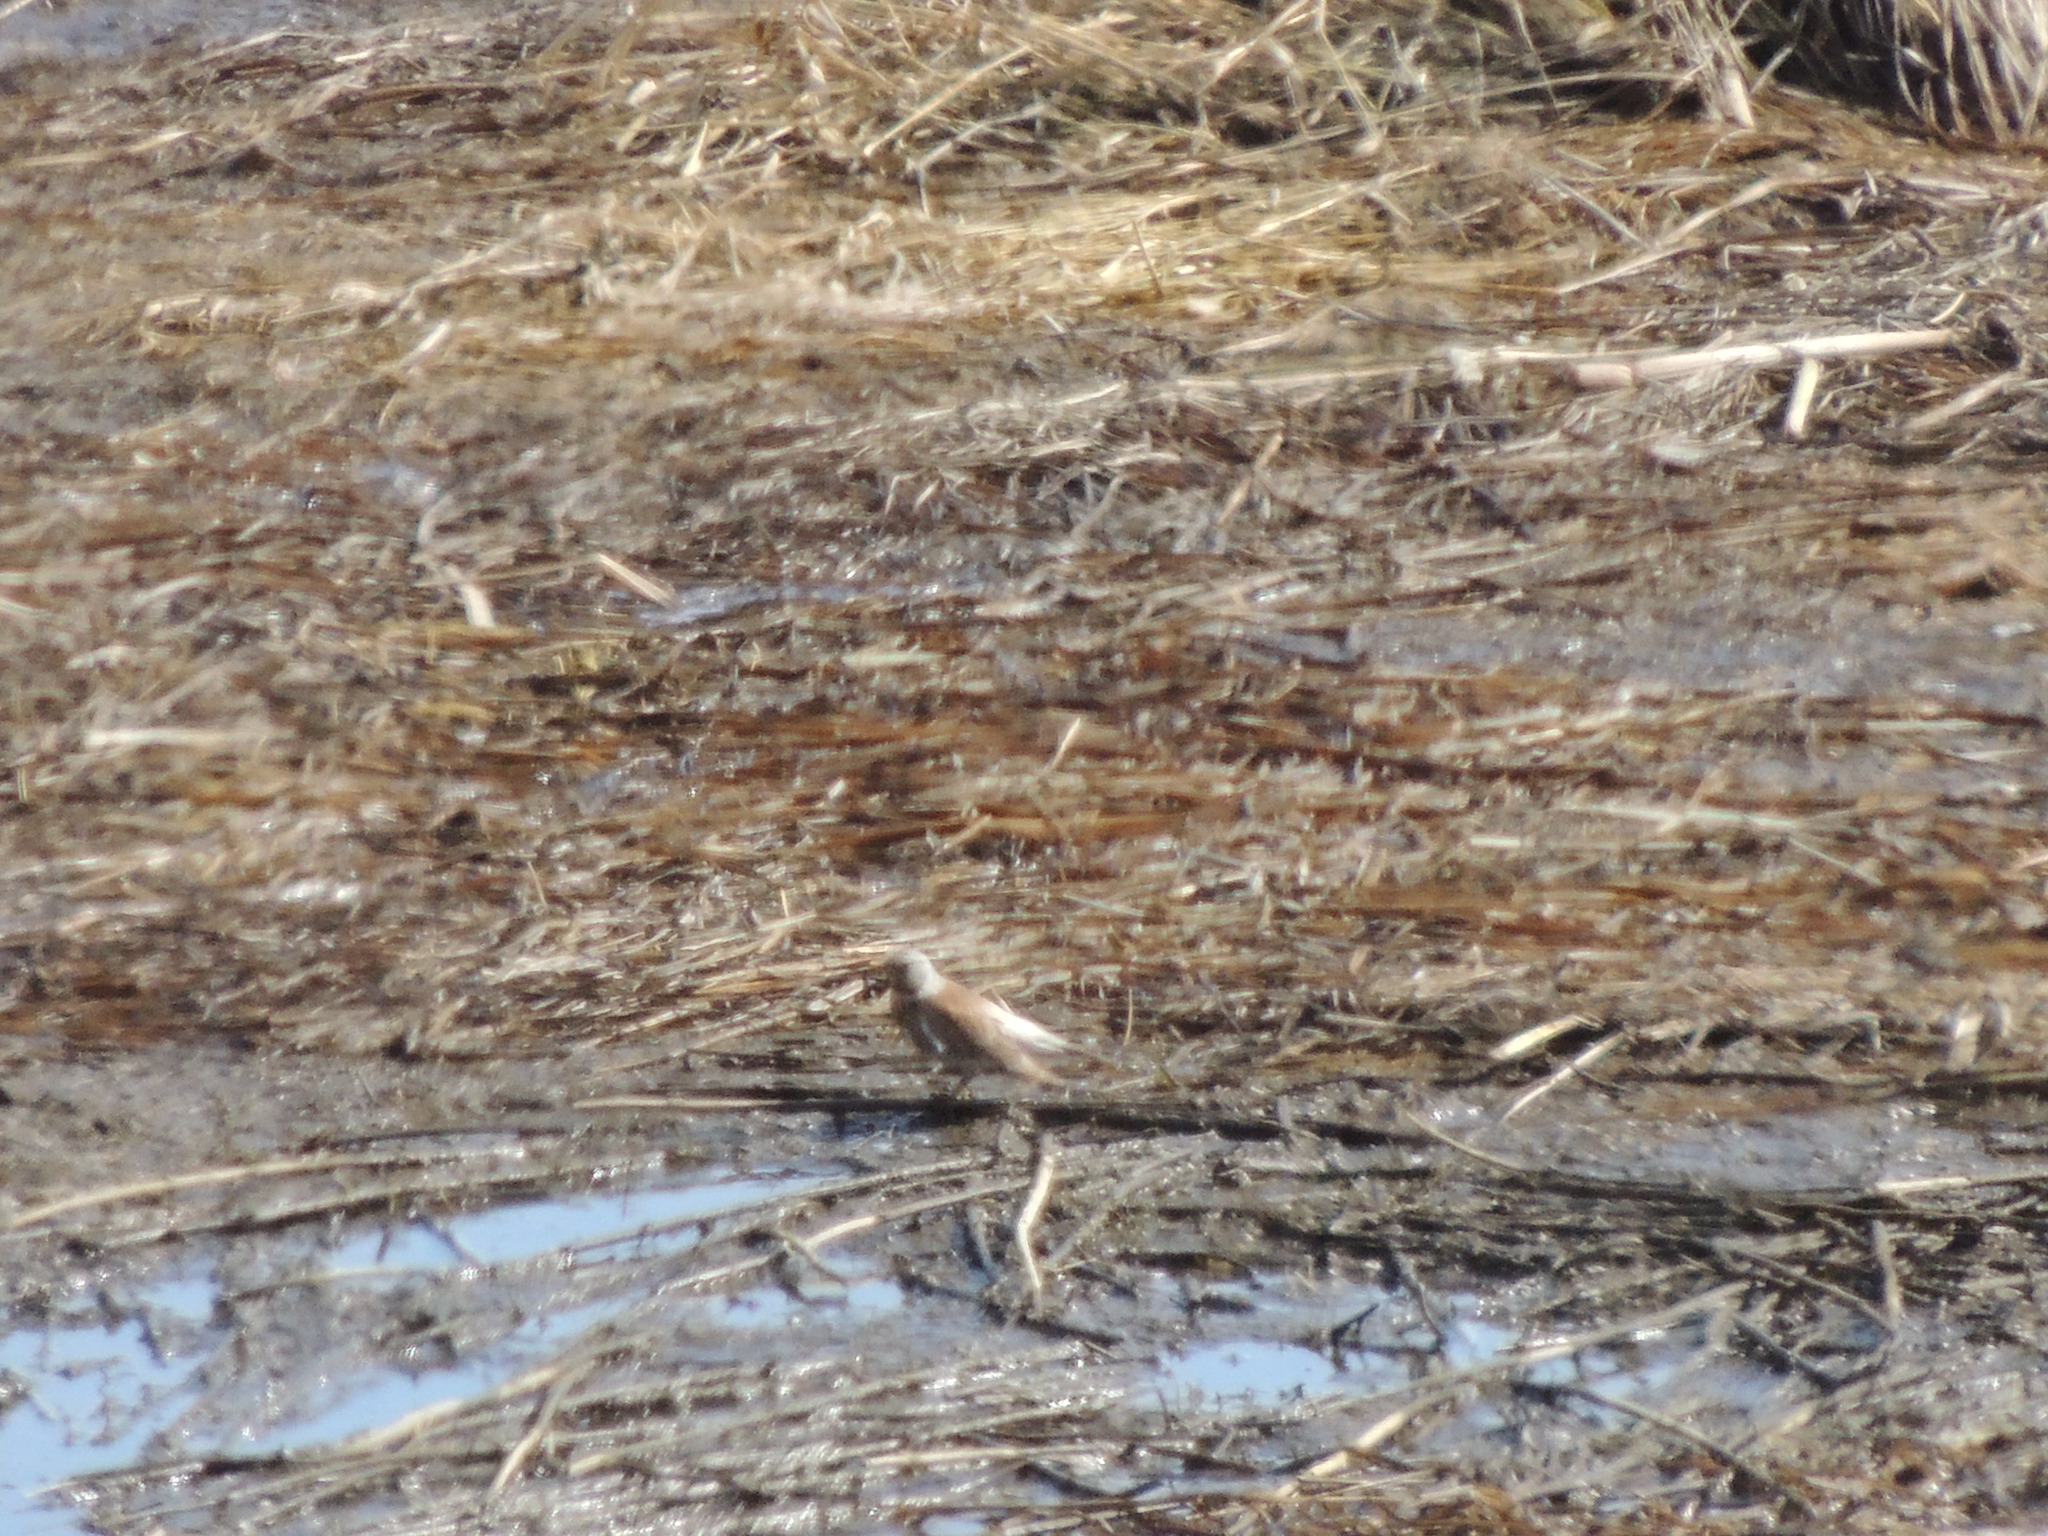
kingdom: Animalia
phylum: Chordata
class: Aves
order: Passeriformes
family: Turdidae
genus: Turdus
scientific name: Turdus pilaris
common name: Fieldfare
